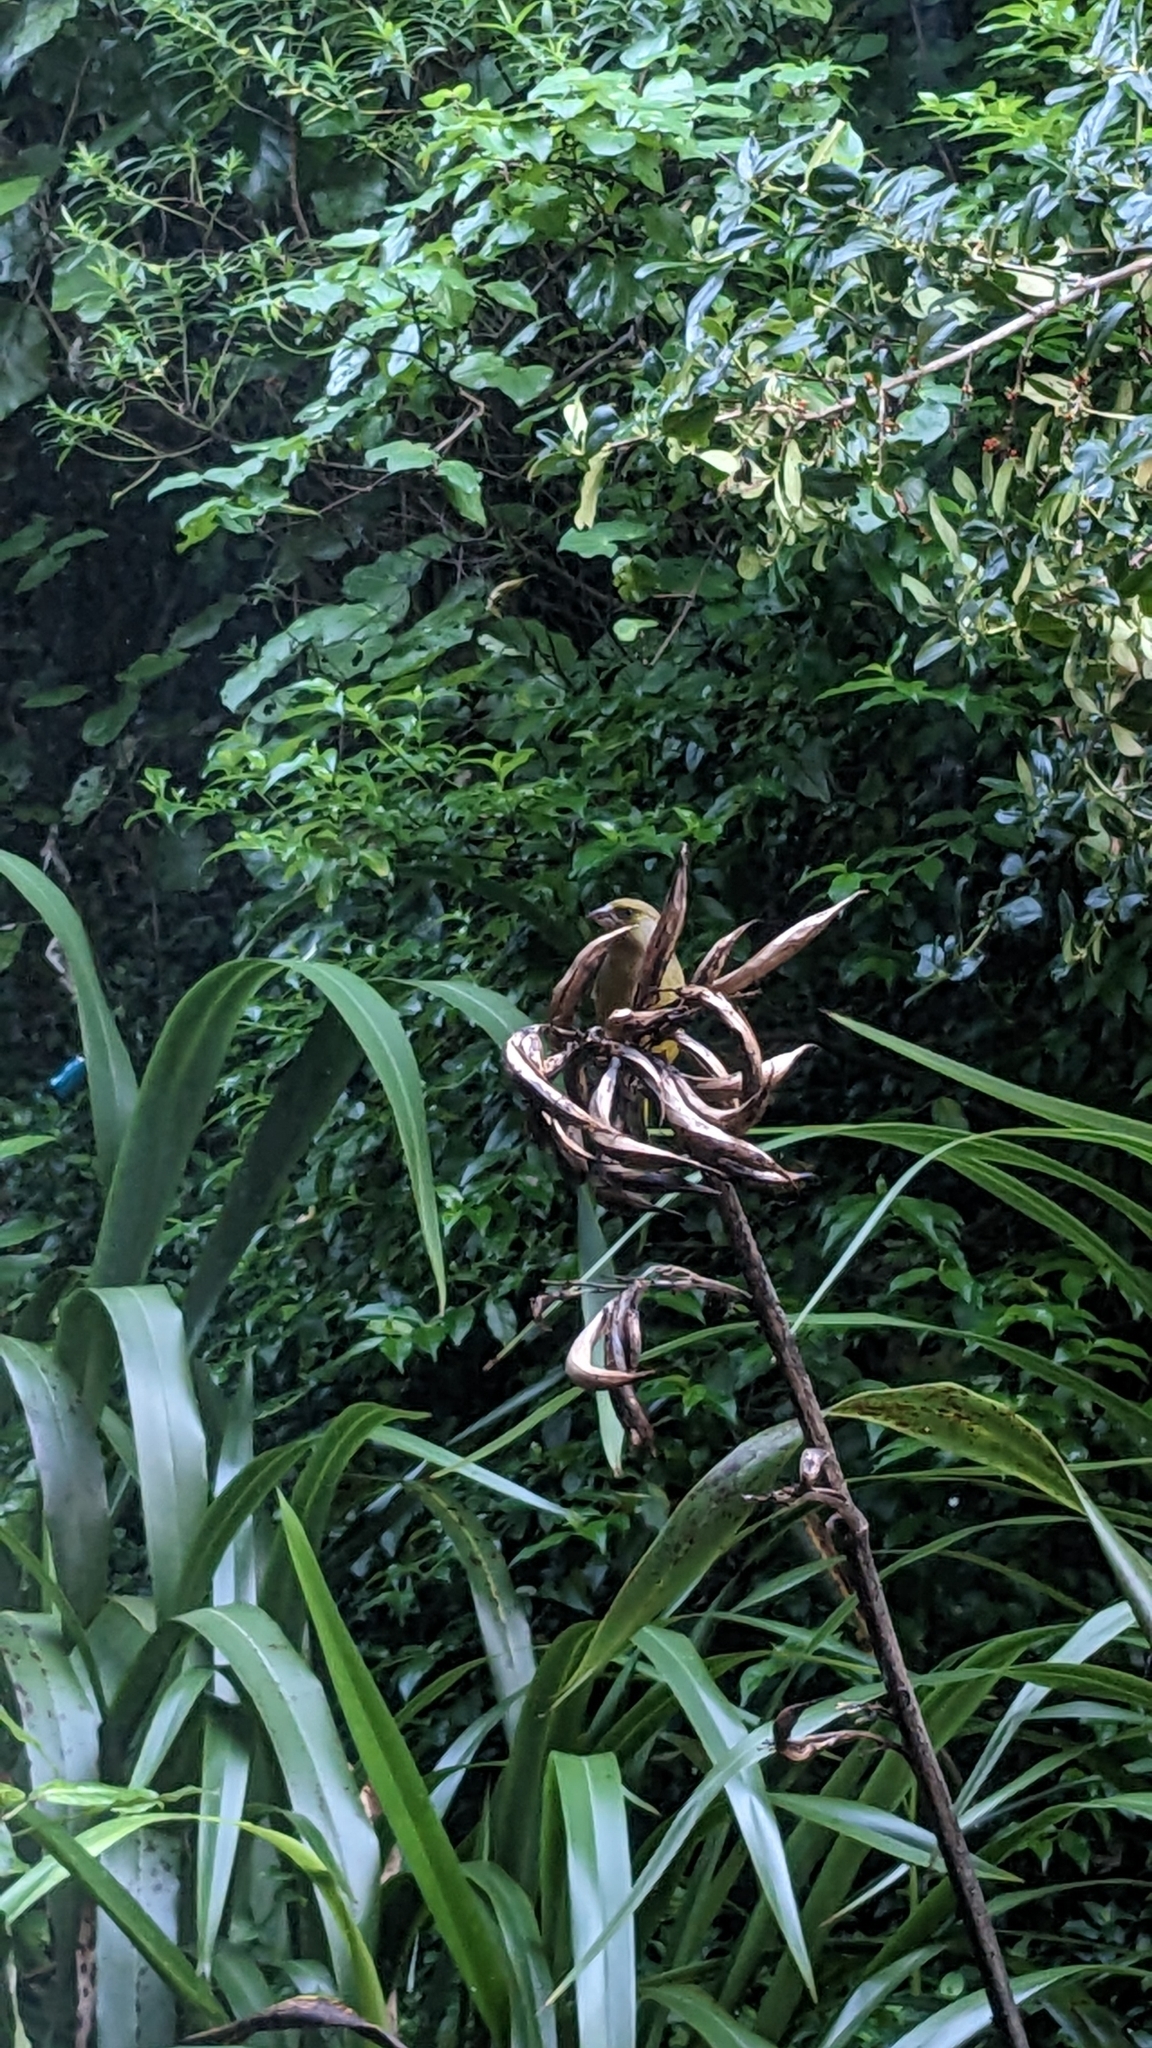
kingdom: Plantae
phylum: Tracheophyta
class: Liliopsida
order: Poales
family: Poaceae
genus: Chloris
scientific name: Chloris chloris
